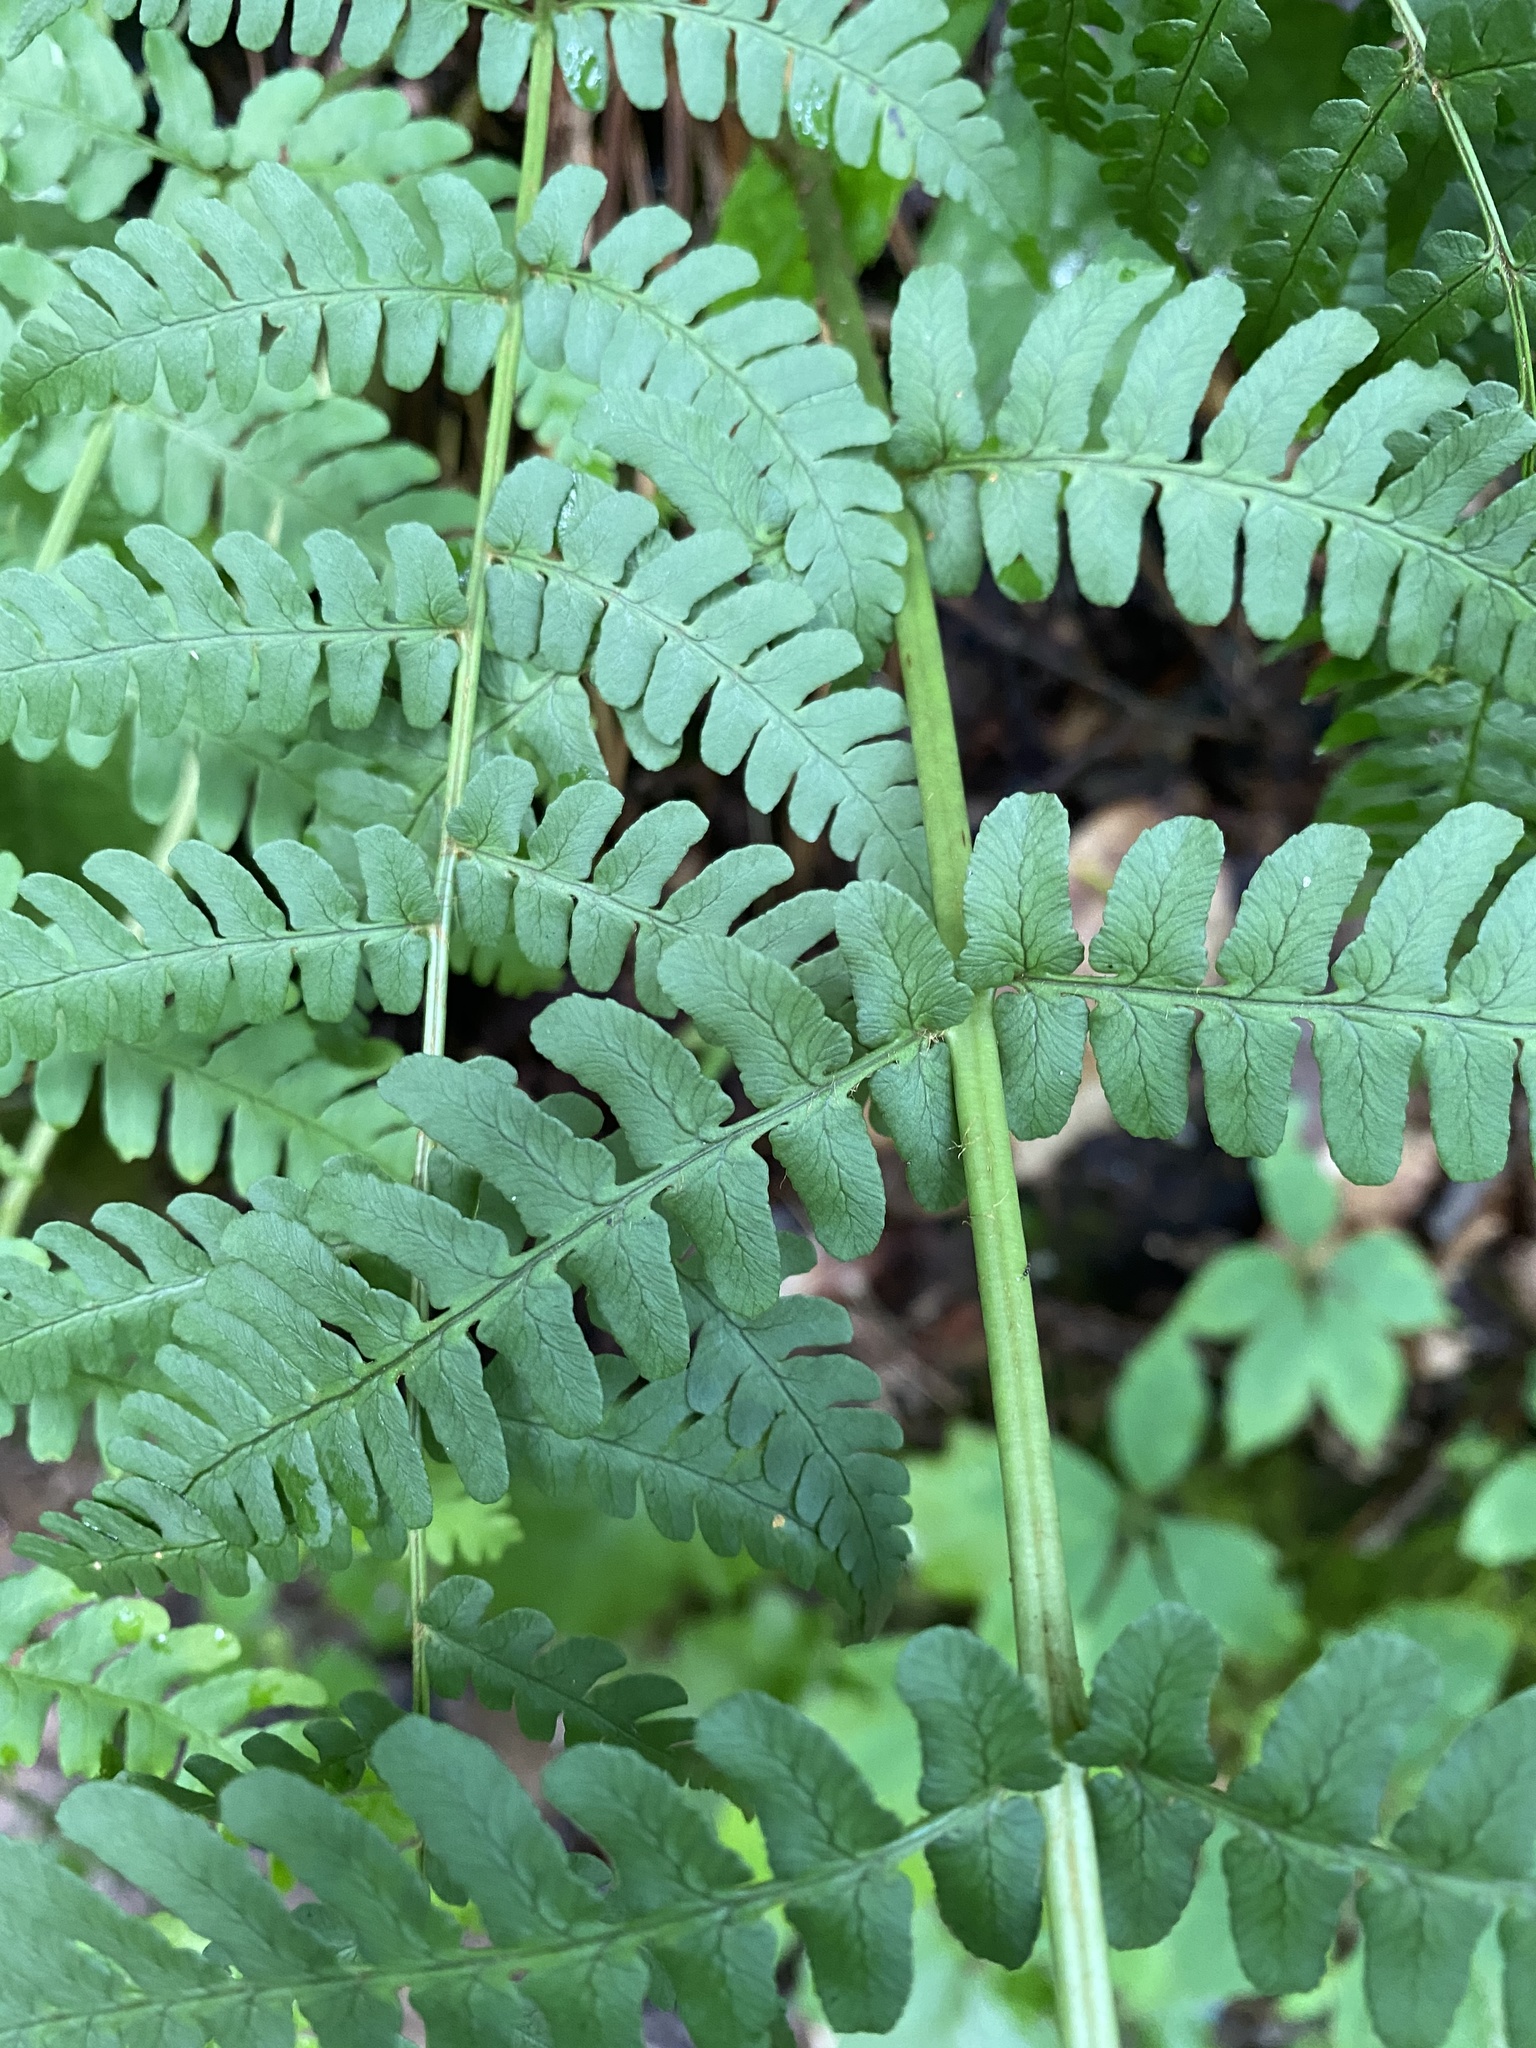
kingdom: Plantae
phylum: Tracheophyta
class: Polypodiopsida
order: Polypodiales
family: Dryopteridaceae
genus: Dryopteris
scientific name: Dryopteris marginalis
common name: Marginal wood fern
